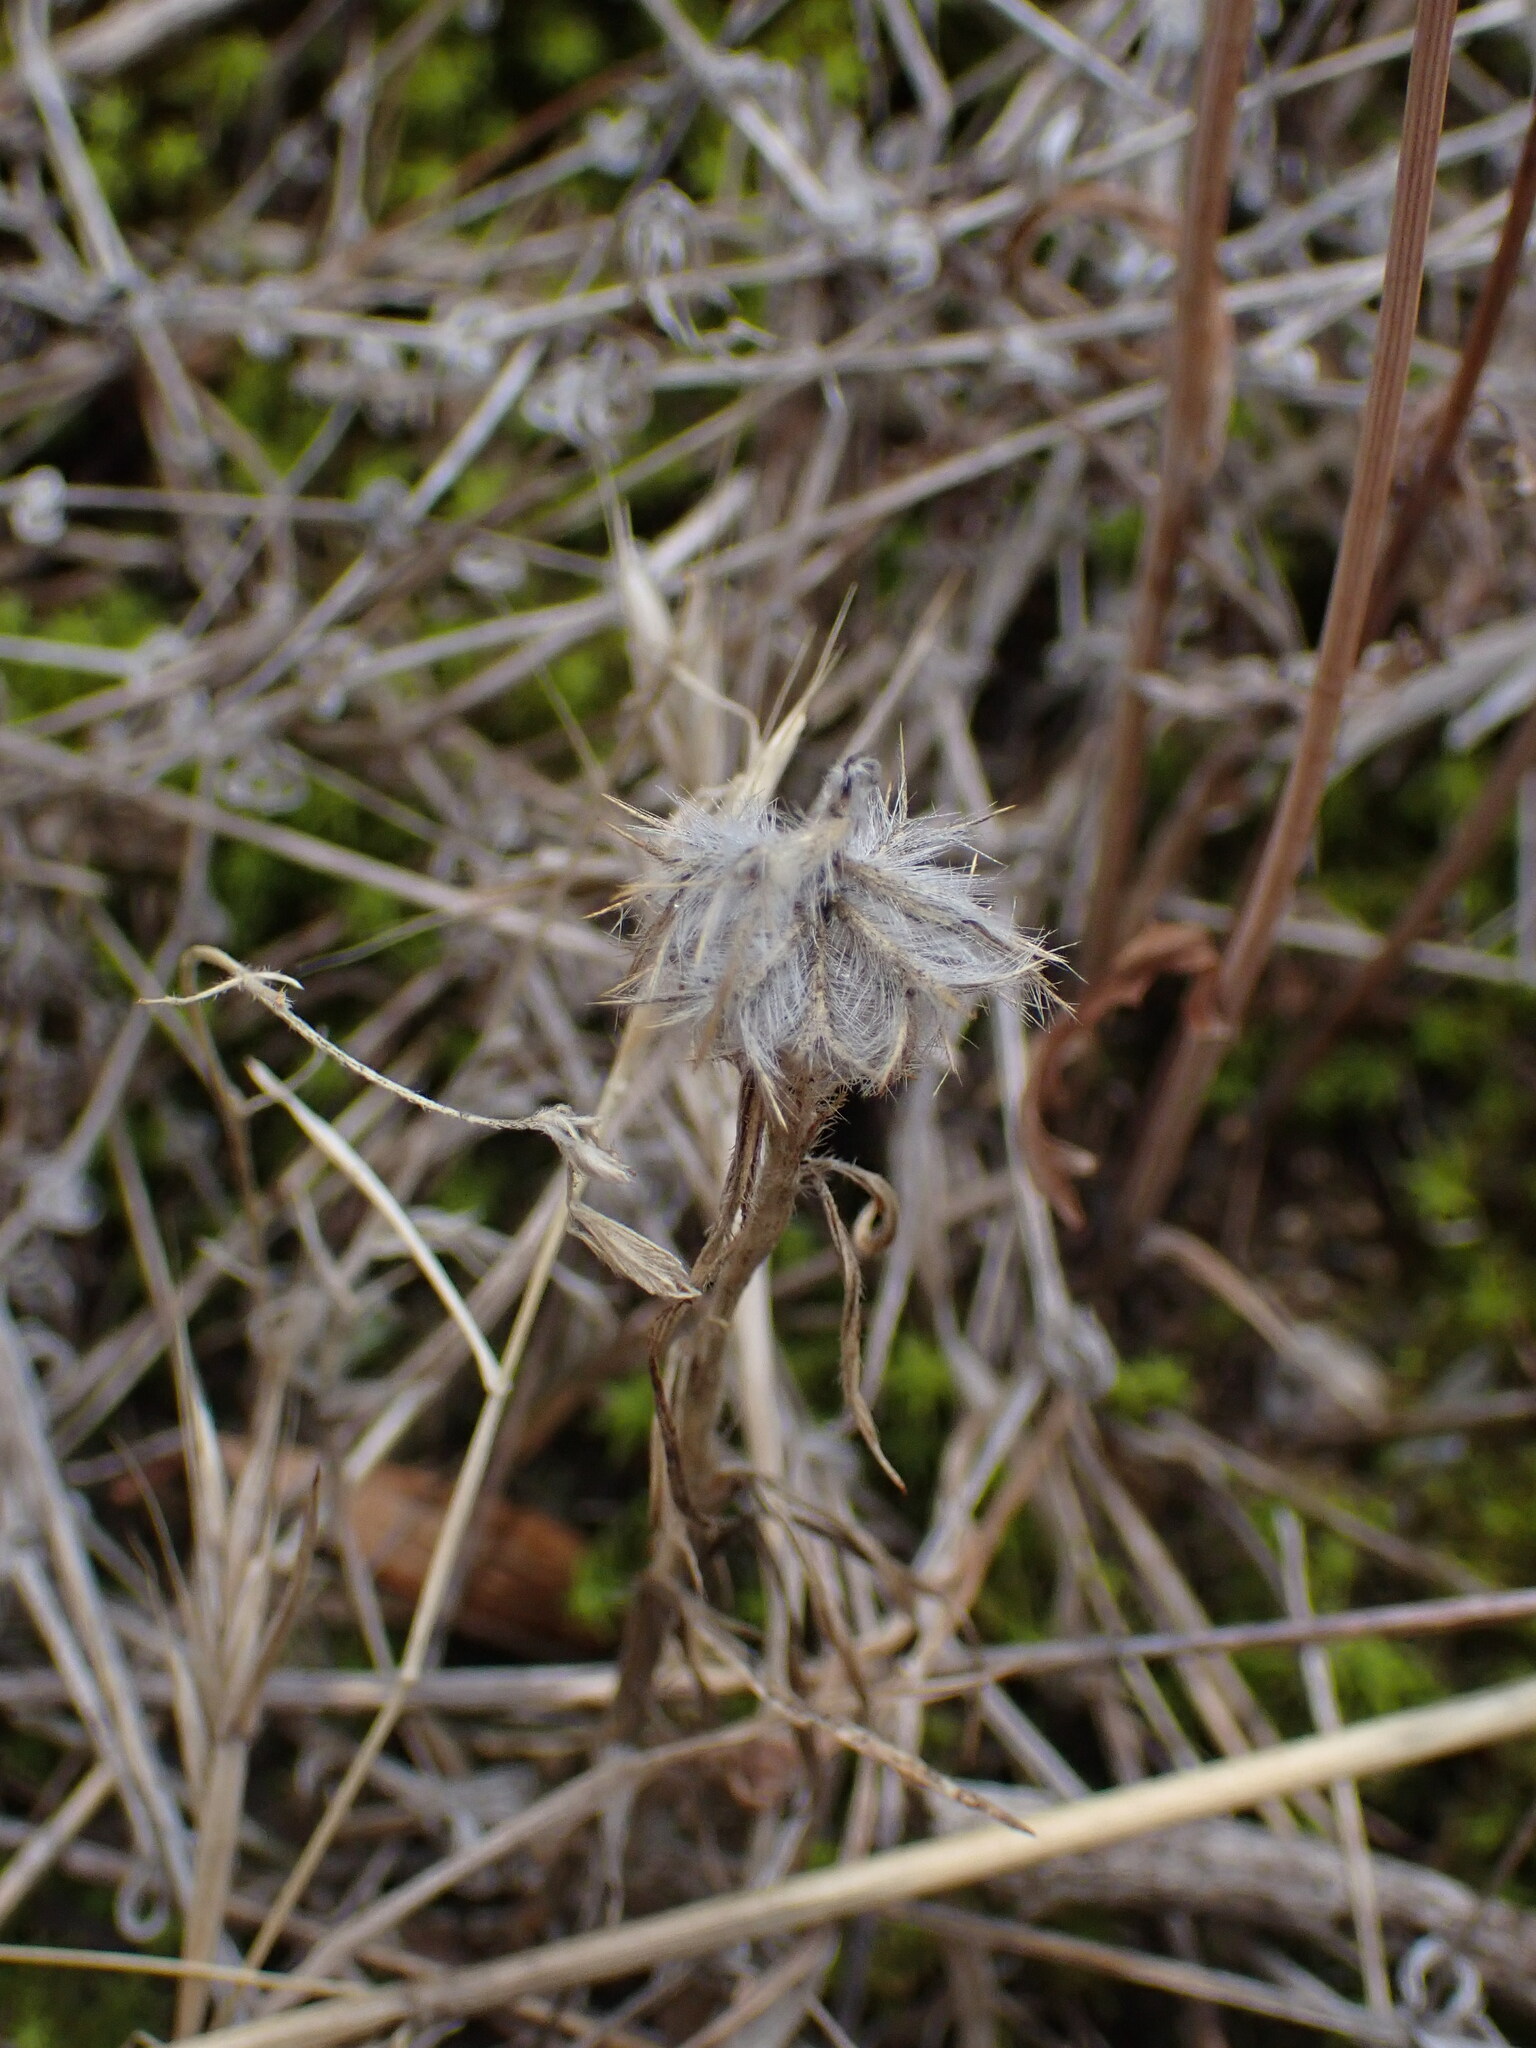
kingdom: Plantae
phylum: Tracheophyta
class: Magnoliopsida
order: Fabales
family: Fabaceae
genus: Trifolium
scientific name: Trifolium angustifolium
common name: Narrow clover
